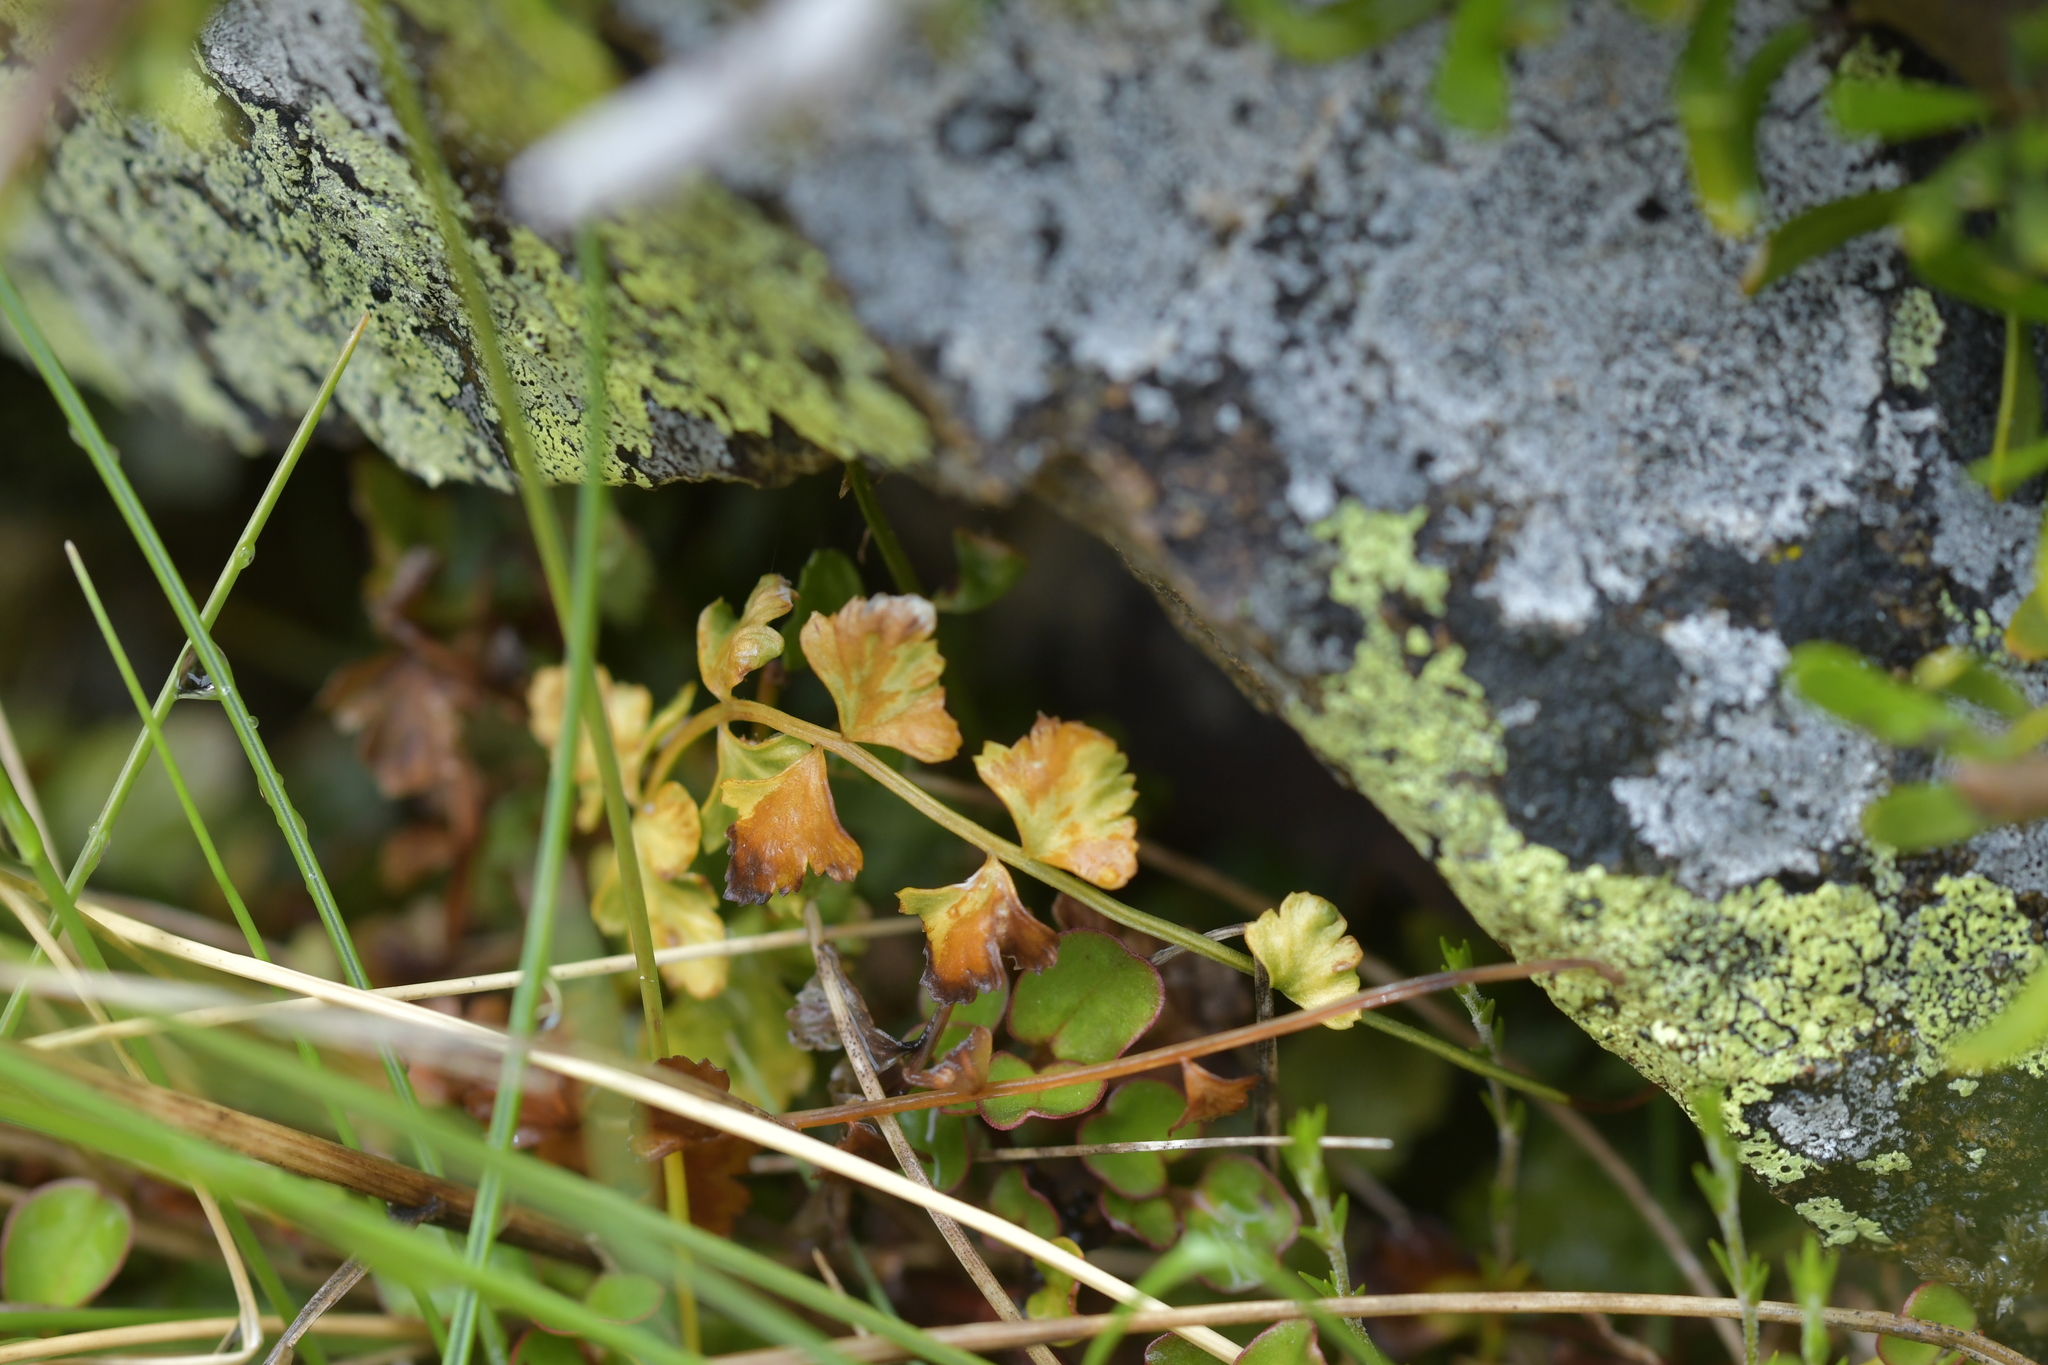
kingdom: Plantae
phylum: Tracheophyta
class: Polypodiopsida
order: Polypodiales
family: Aspleniaceae
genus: Asplenium
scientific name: Asplenium flabellifolium
